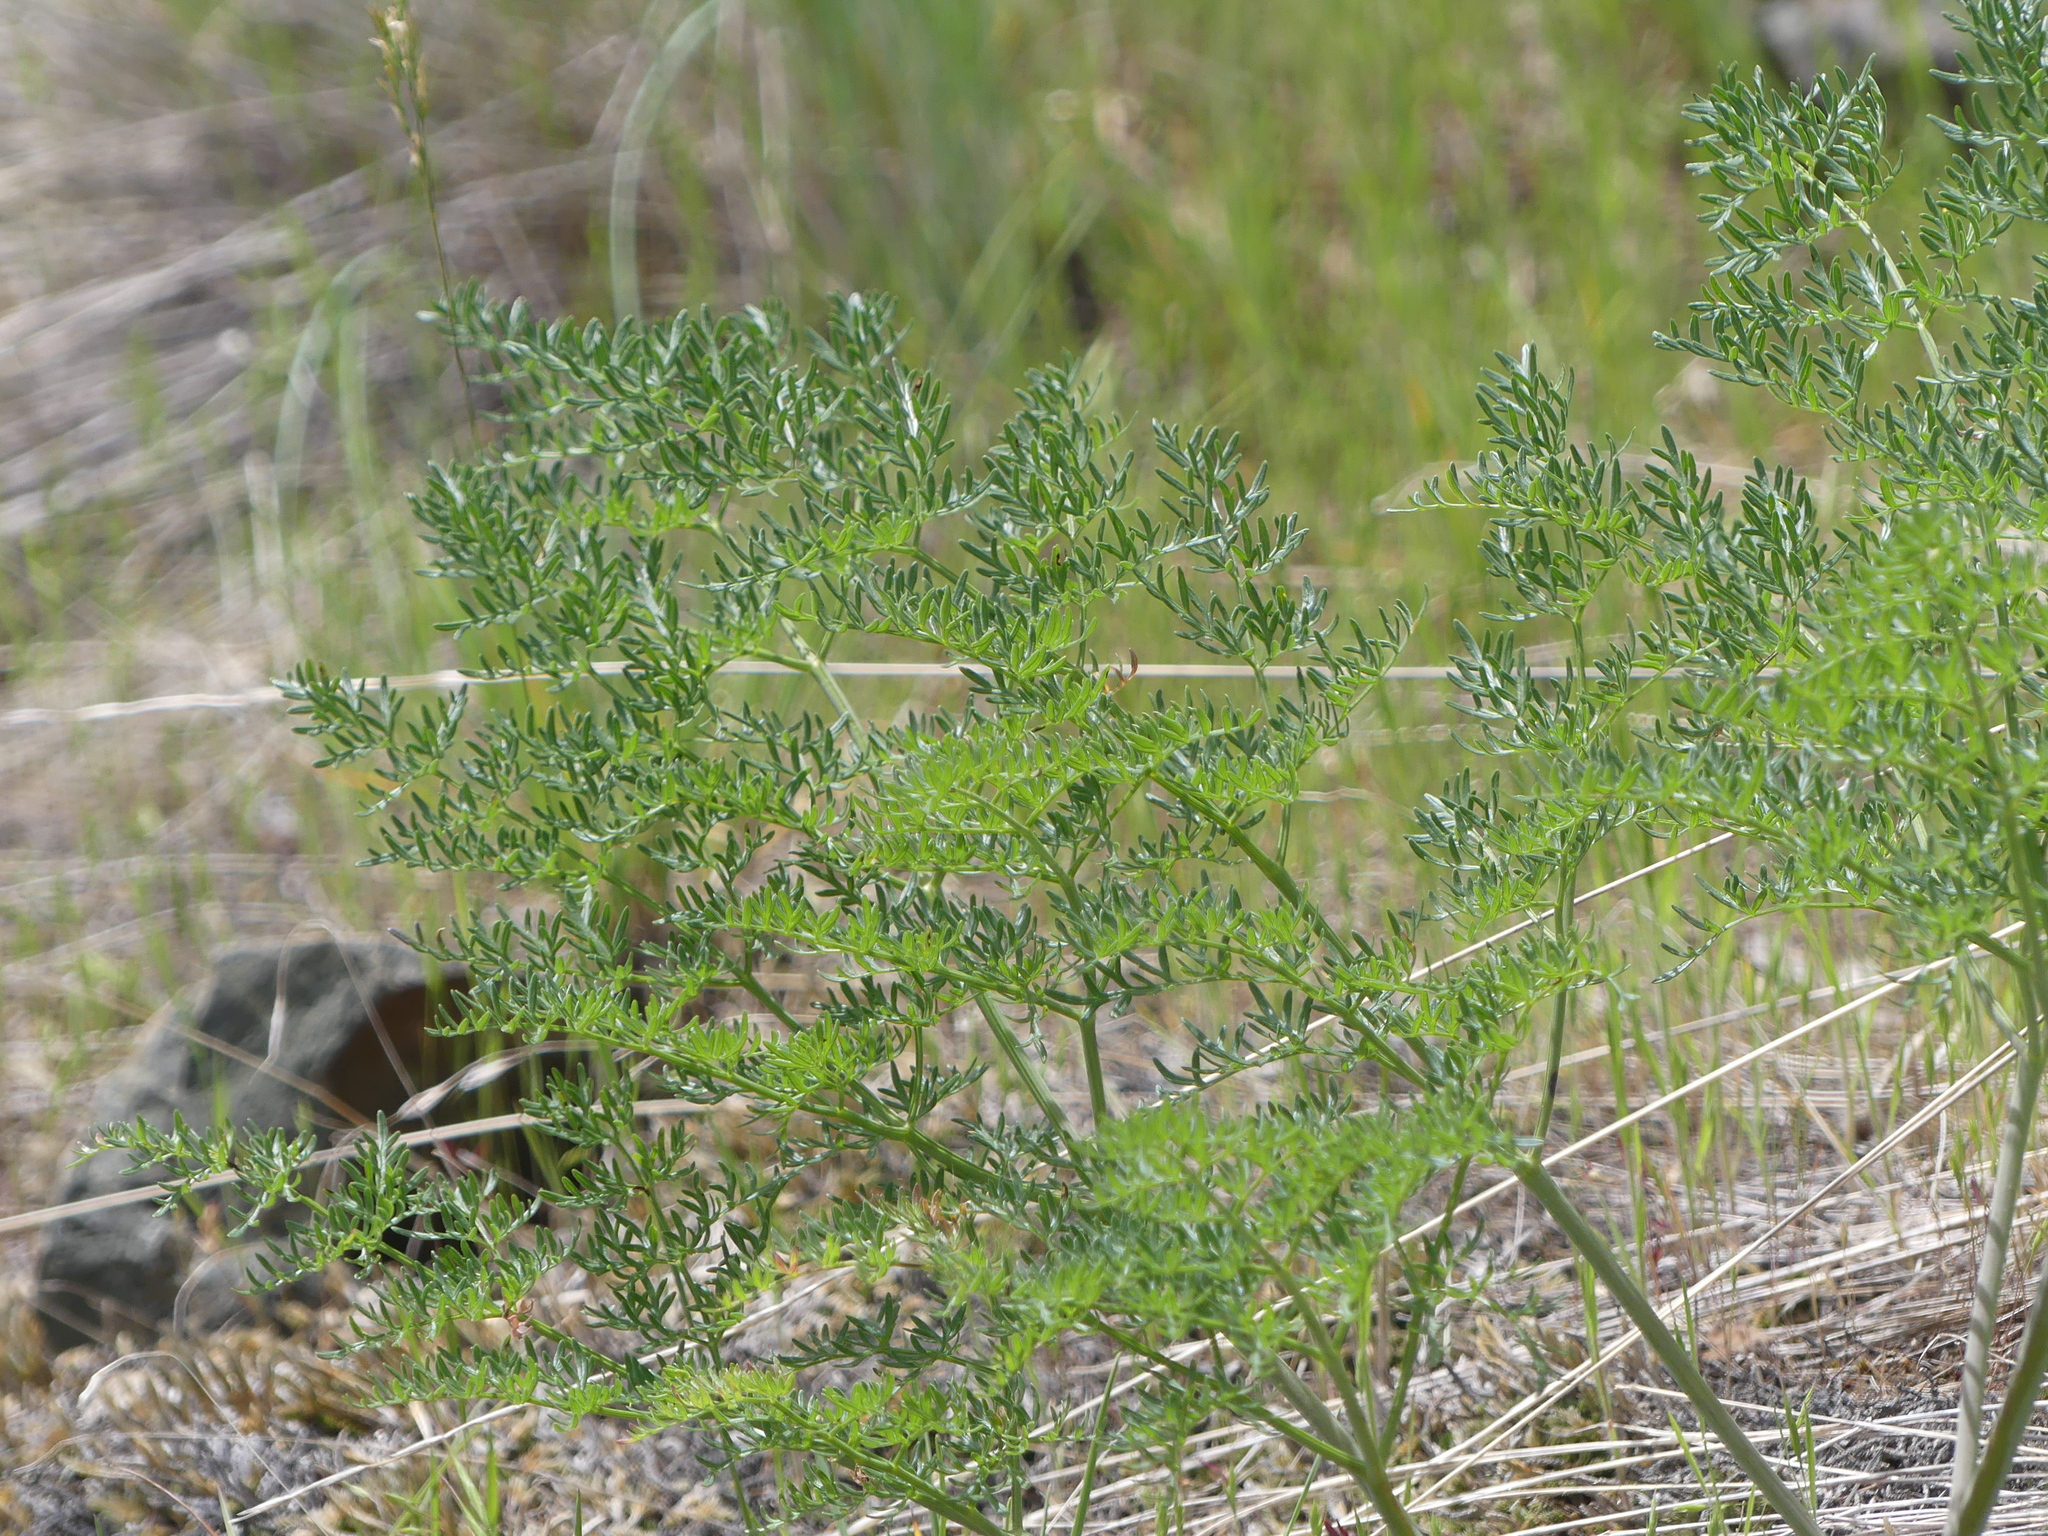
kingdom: Plantae
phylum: Tracheophyta
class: Magnoliopsida
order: Apiales
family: Apiaceae
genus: Lomatium
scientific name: Lomatium multifidum
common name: Carrot-leaved biscuitroot
